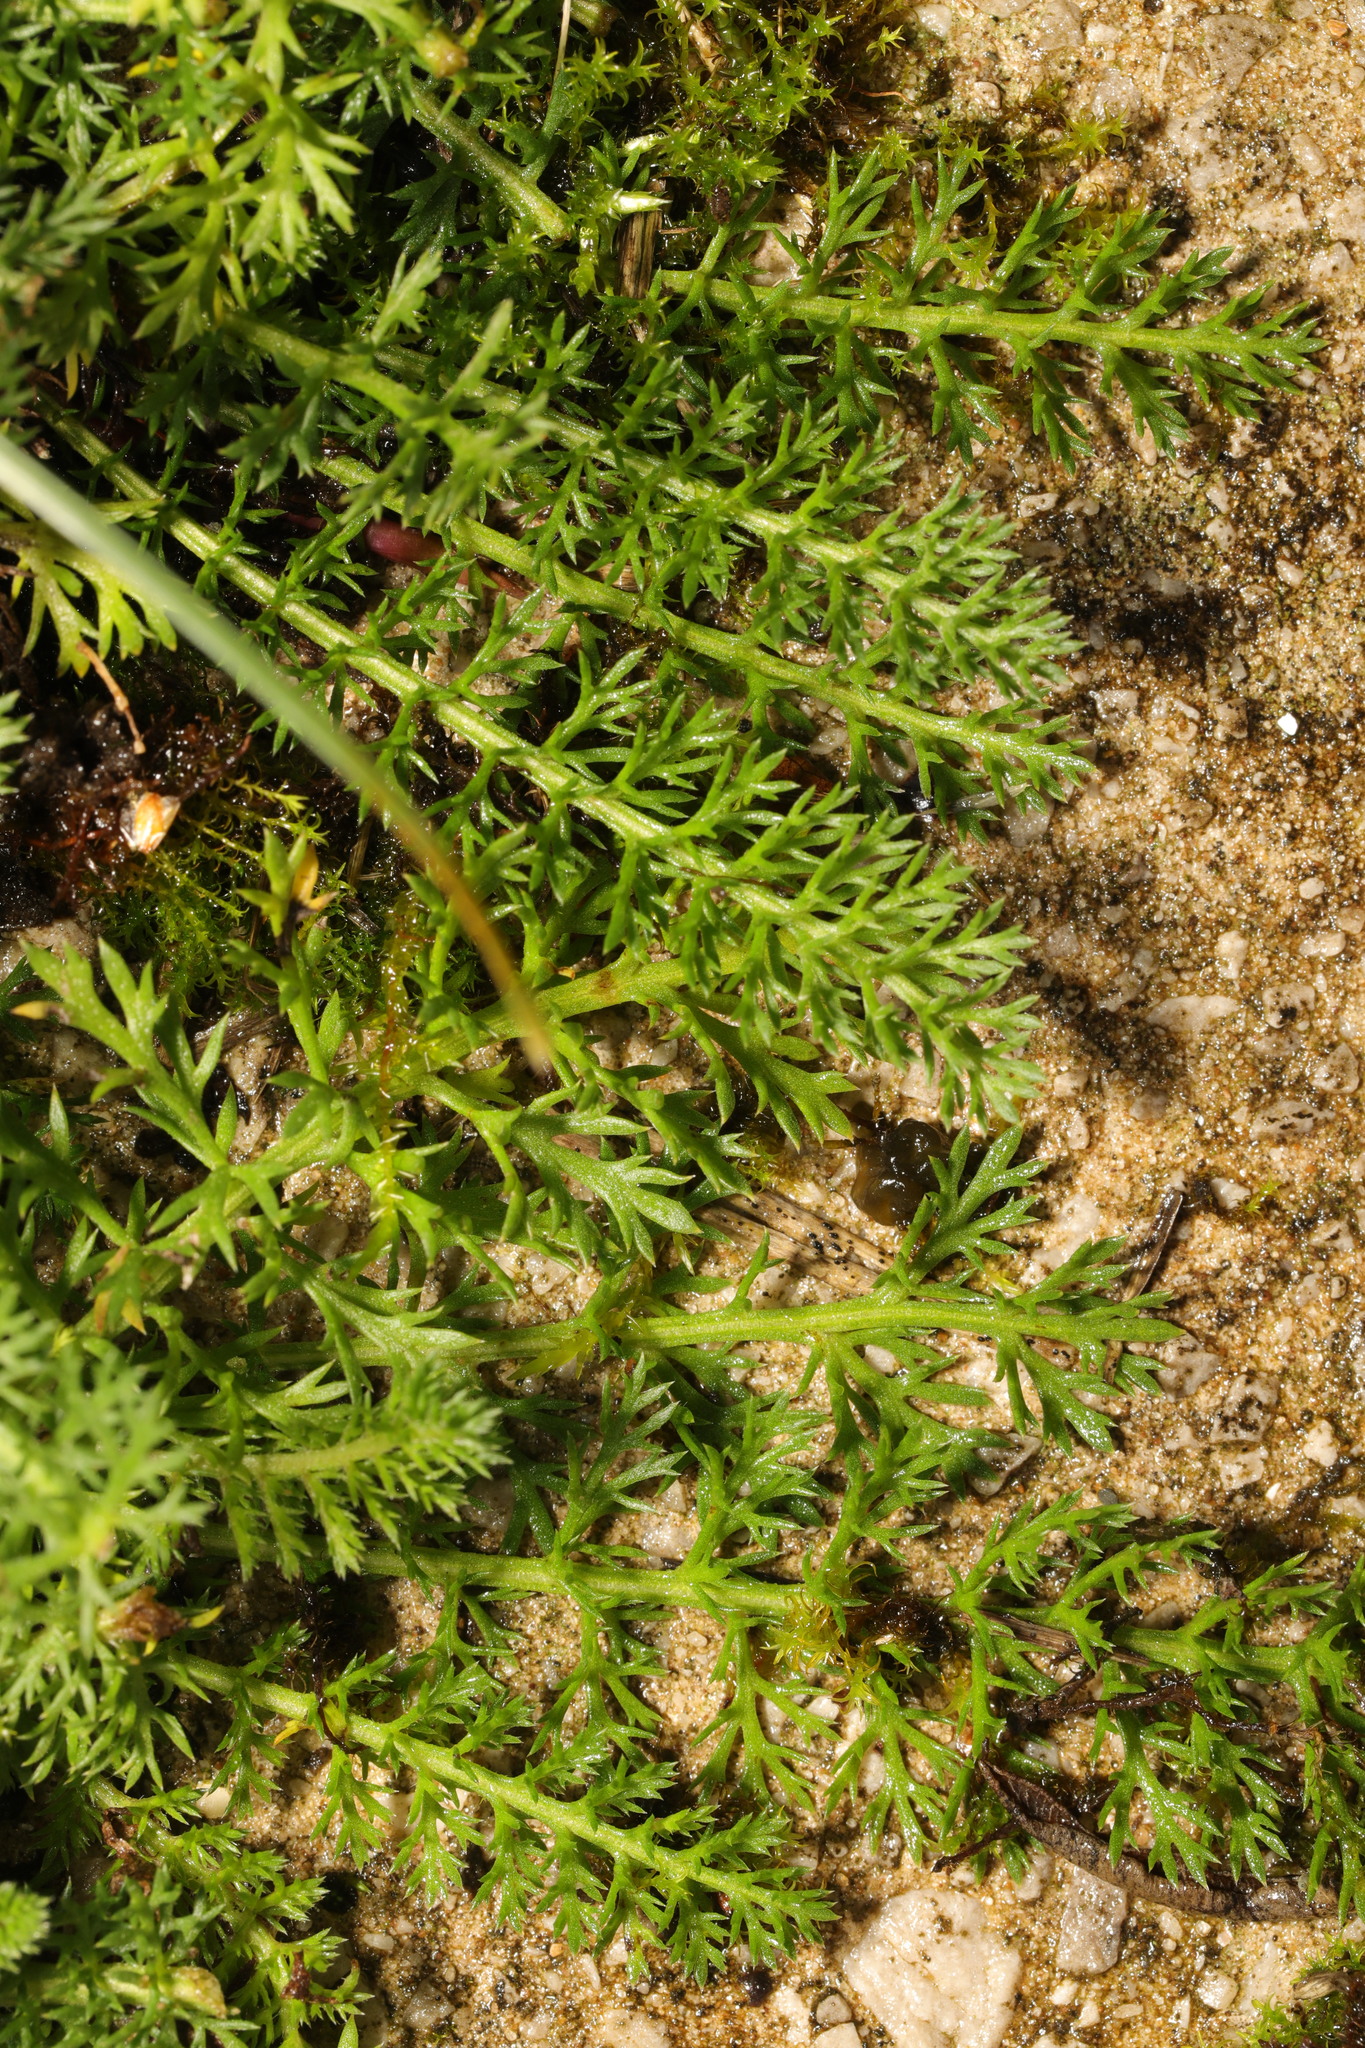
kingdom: Plantae
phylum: Tracheophyta
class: Magnoliopsida
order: Asterales
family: Asteraceae
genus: Achillea
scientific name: Achillea millefolium
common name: Yarrow
